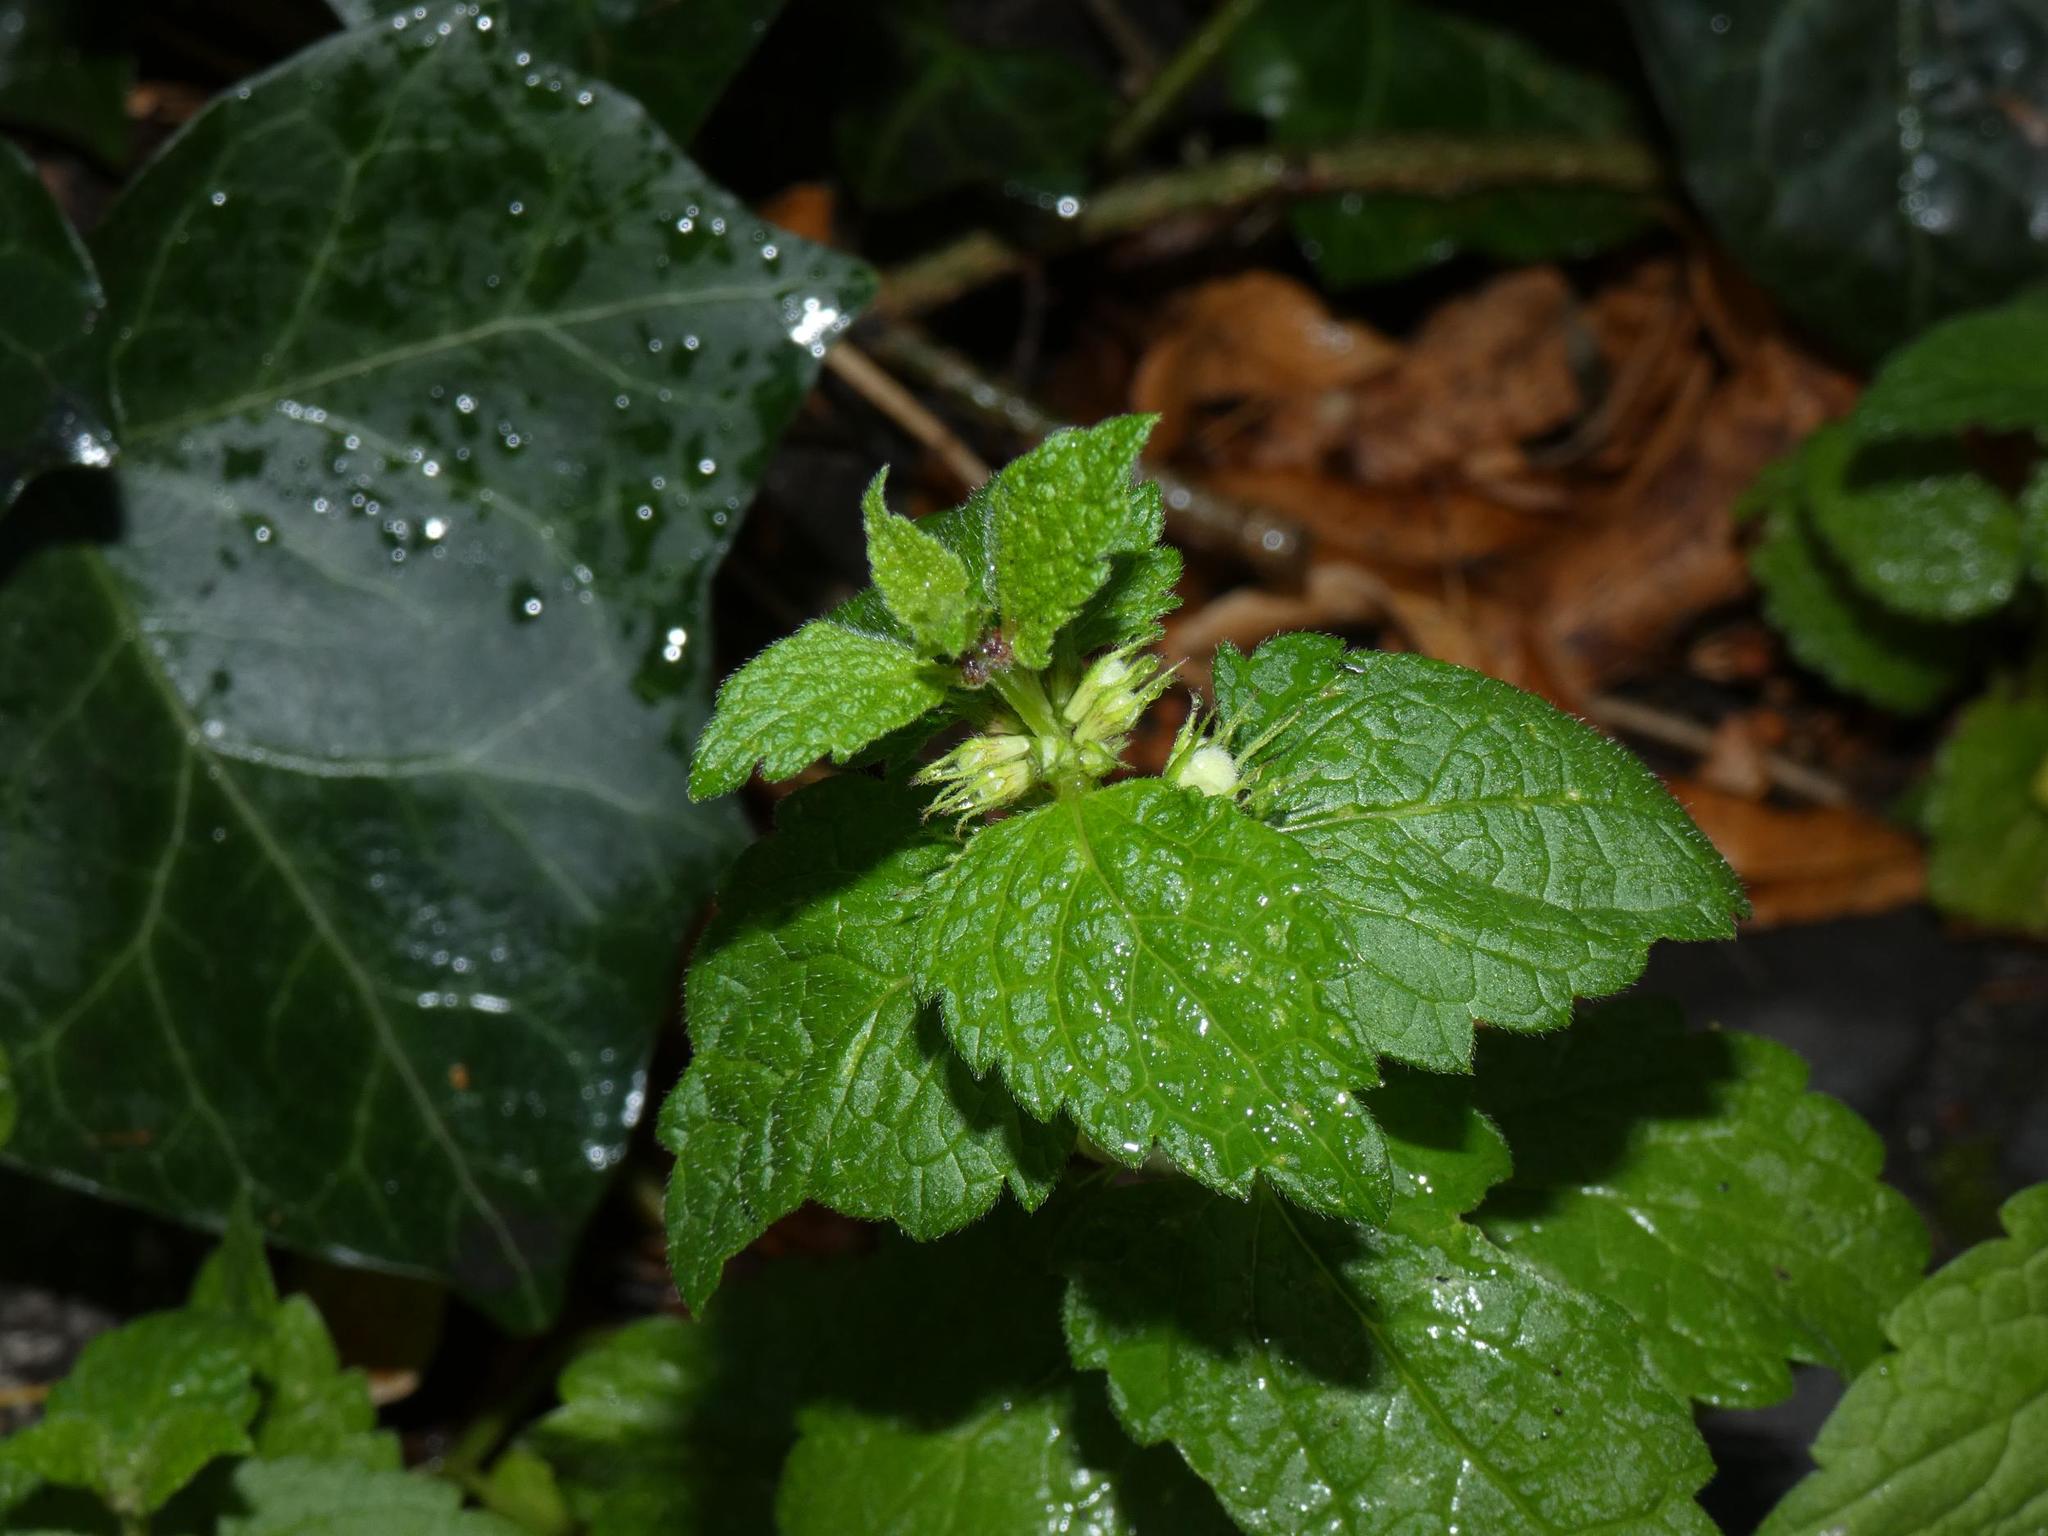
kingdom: Plantae
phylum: Tracheophyta
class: Magnoliopsida
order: Lamiales
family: Lamiaceae
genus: Lamium
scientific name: Lamium album
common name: White dead-nettle
